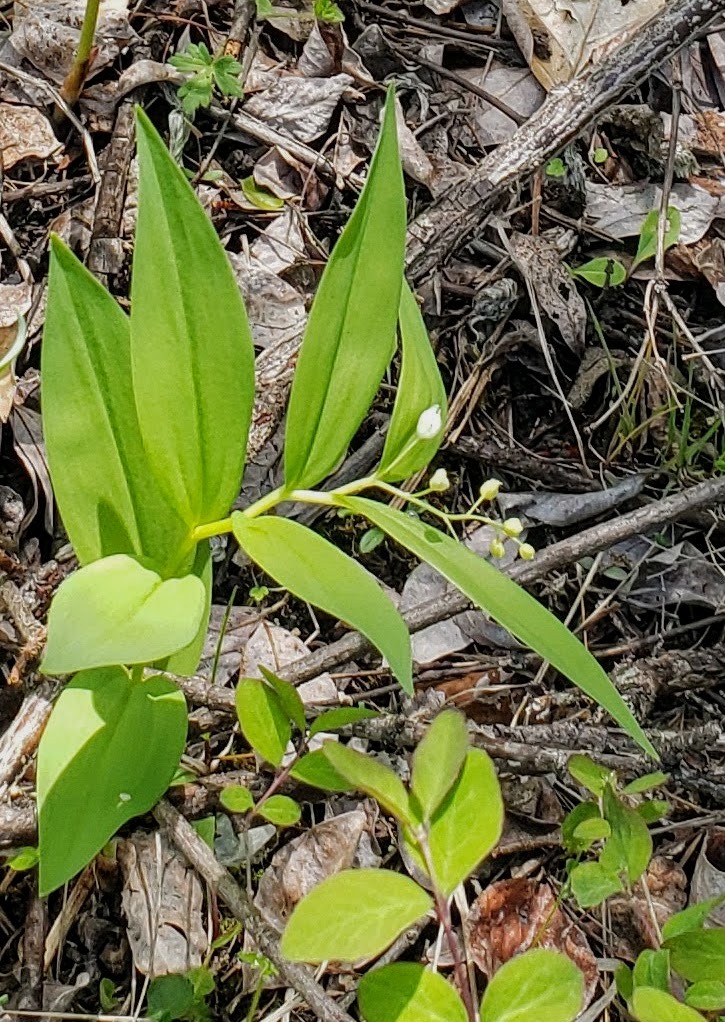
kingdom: Plantae
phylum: Tracheophyta
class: Liliopsida
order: Asparagales
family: Asparagaceae
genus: Maianthemum
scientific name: Maianthemum stellatum
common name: Little false solomon's seal
